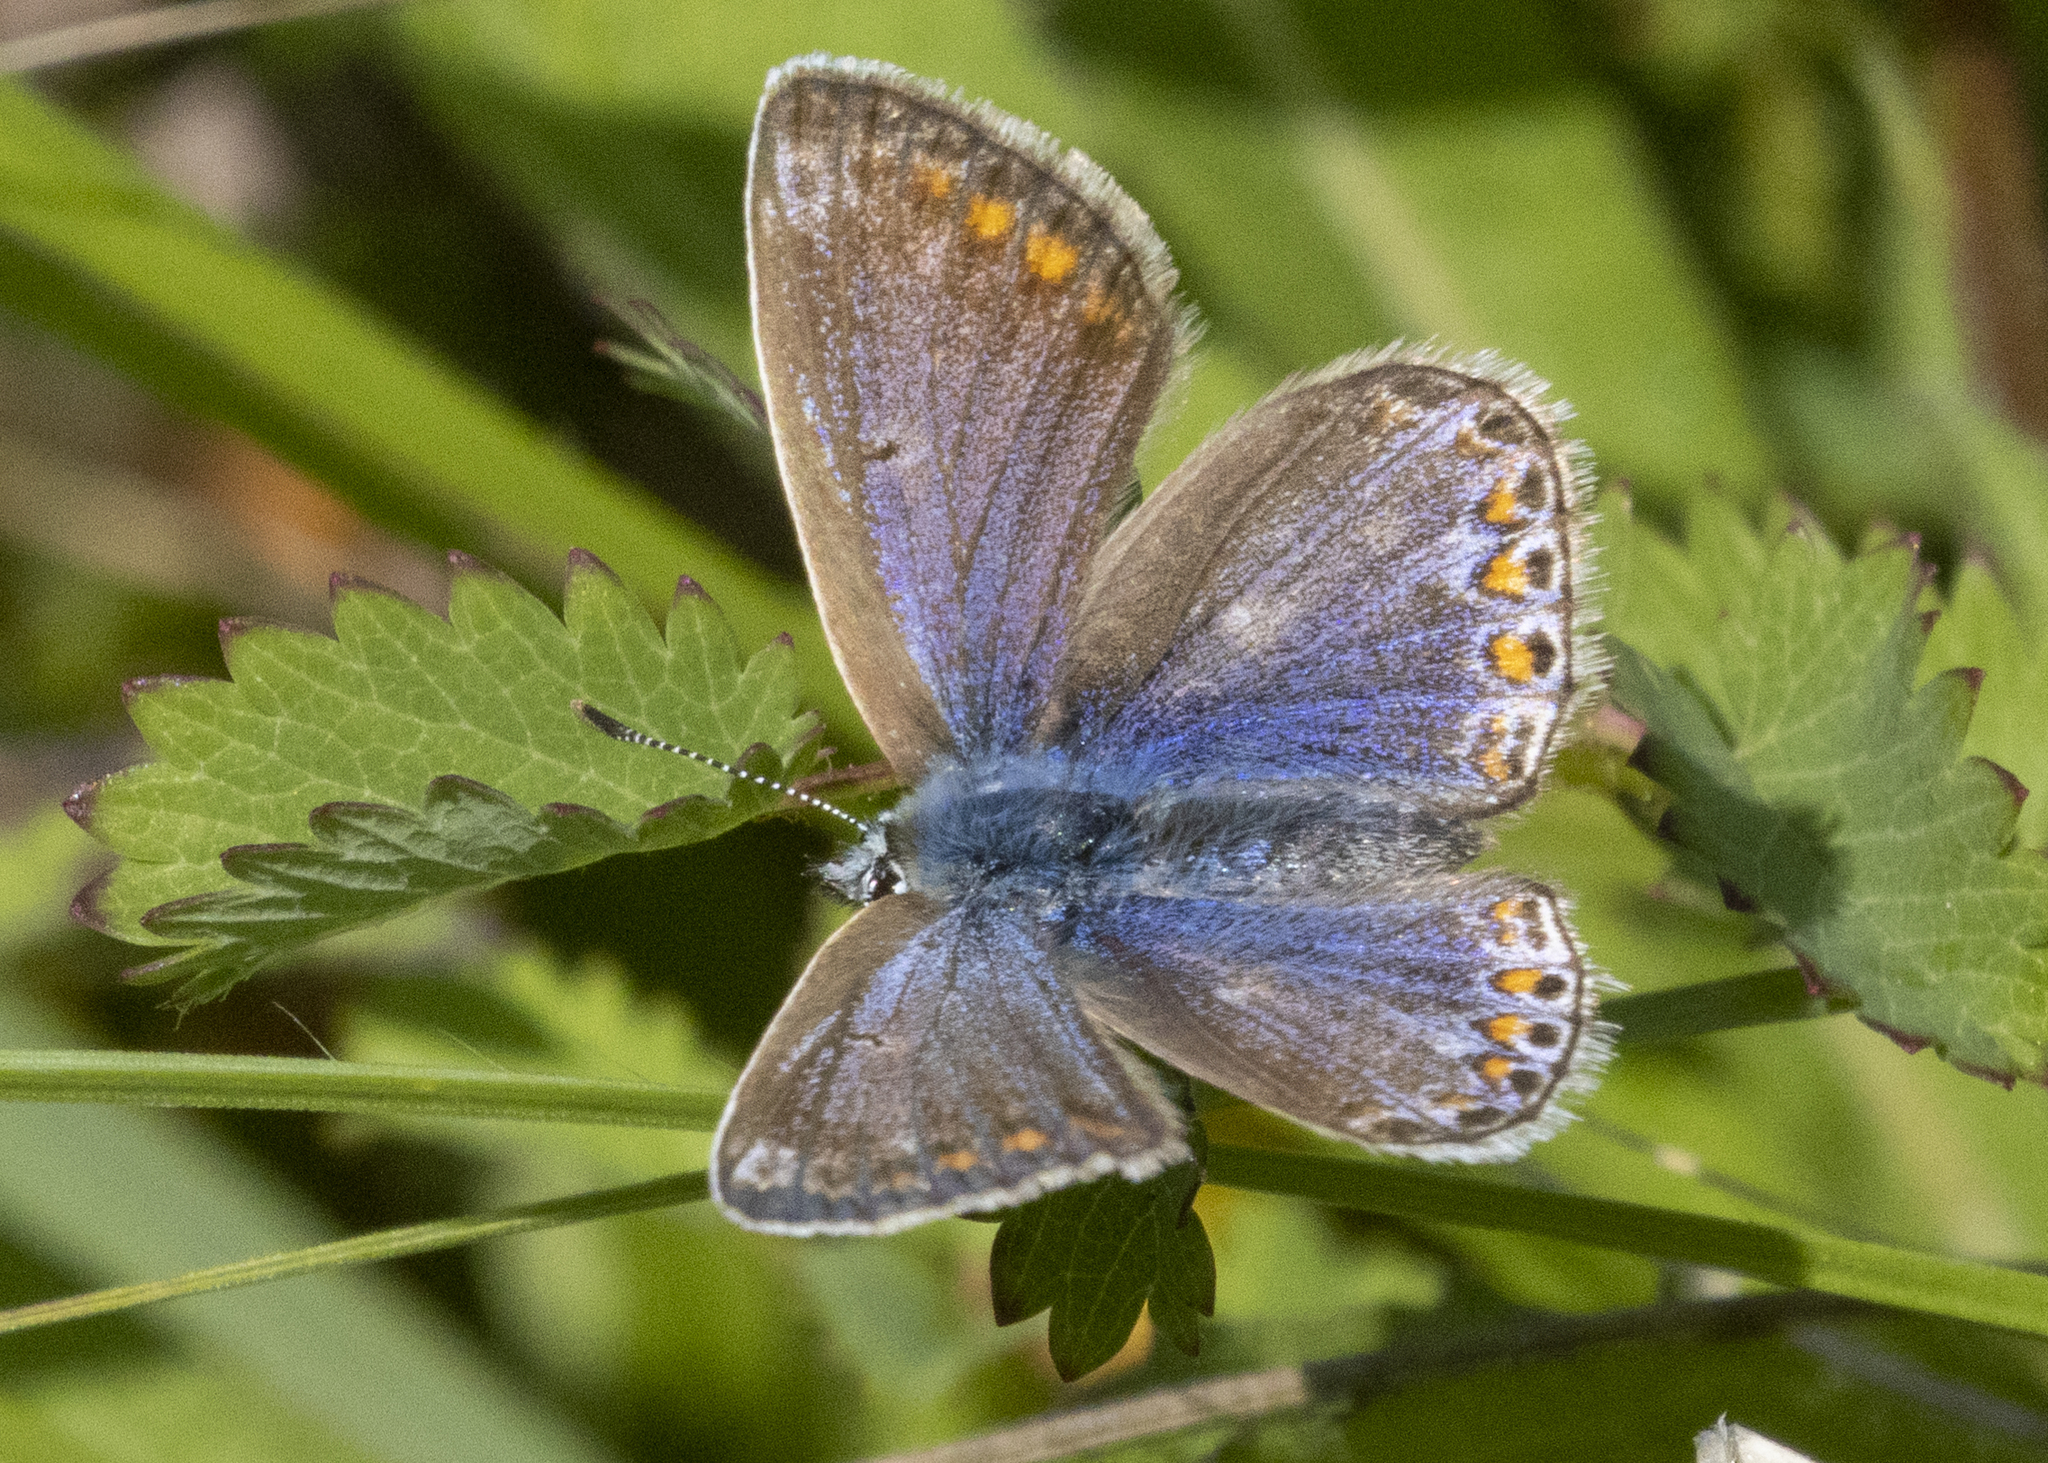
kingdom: Animalia
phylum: Arthropoda
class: Insecta
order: Lepidoptera
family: Lycaenidae
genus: Polyommatus
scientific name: Polyommatus icarus
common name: Common blue
